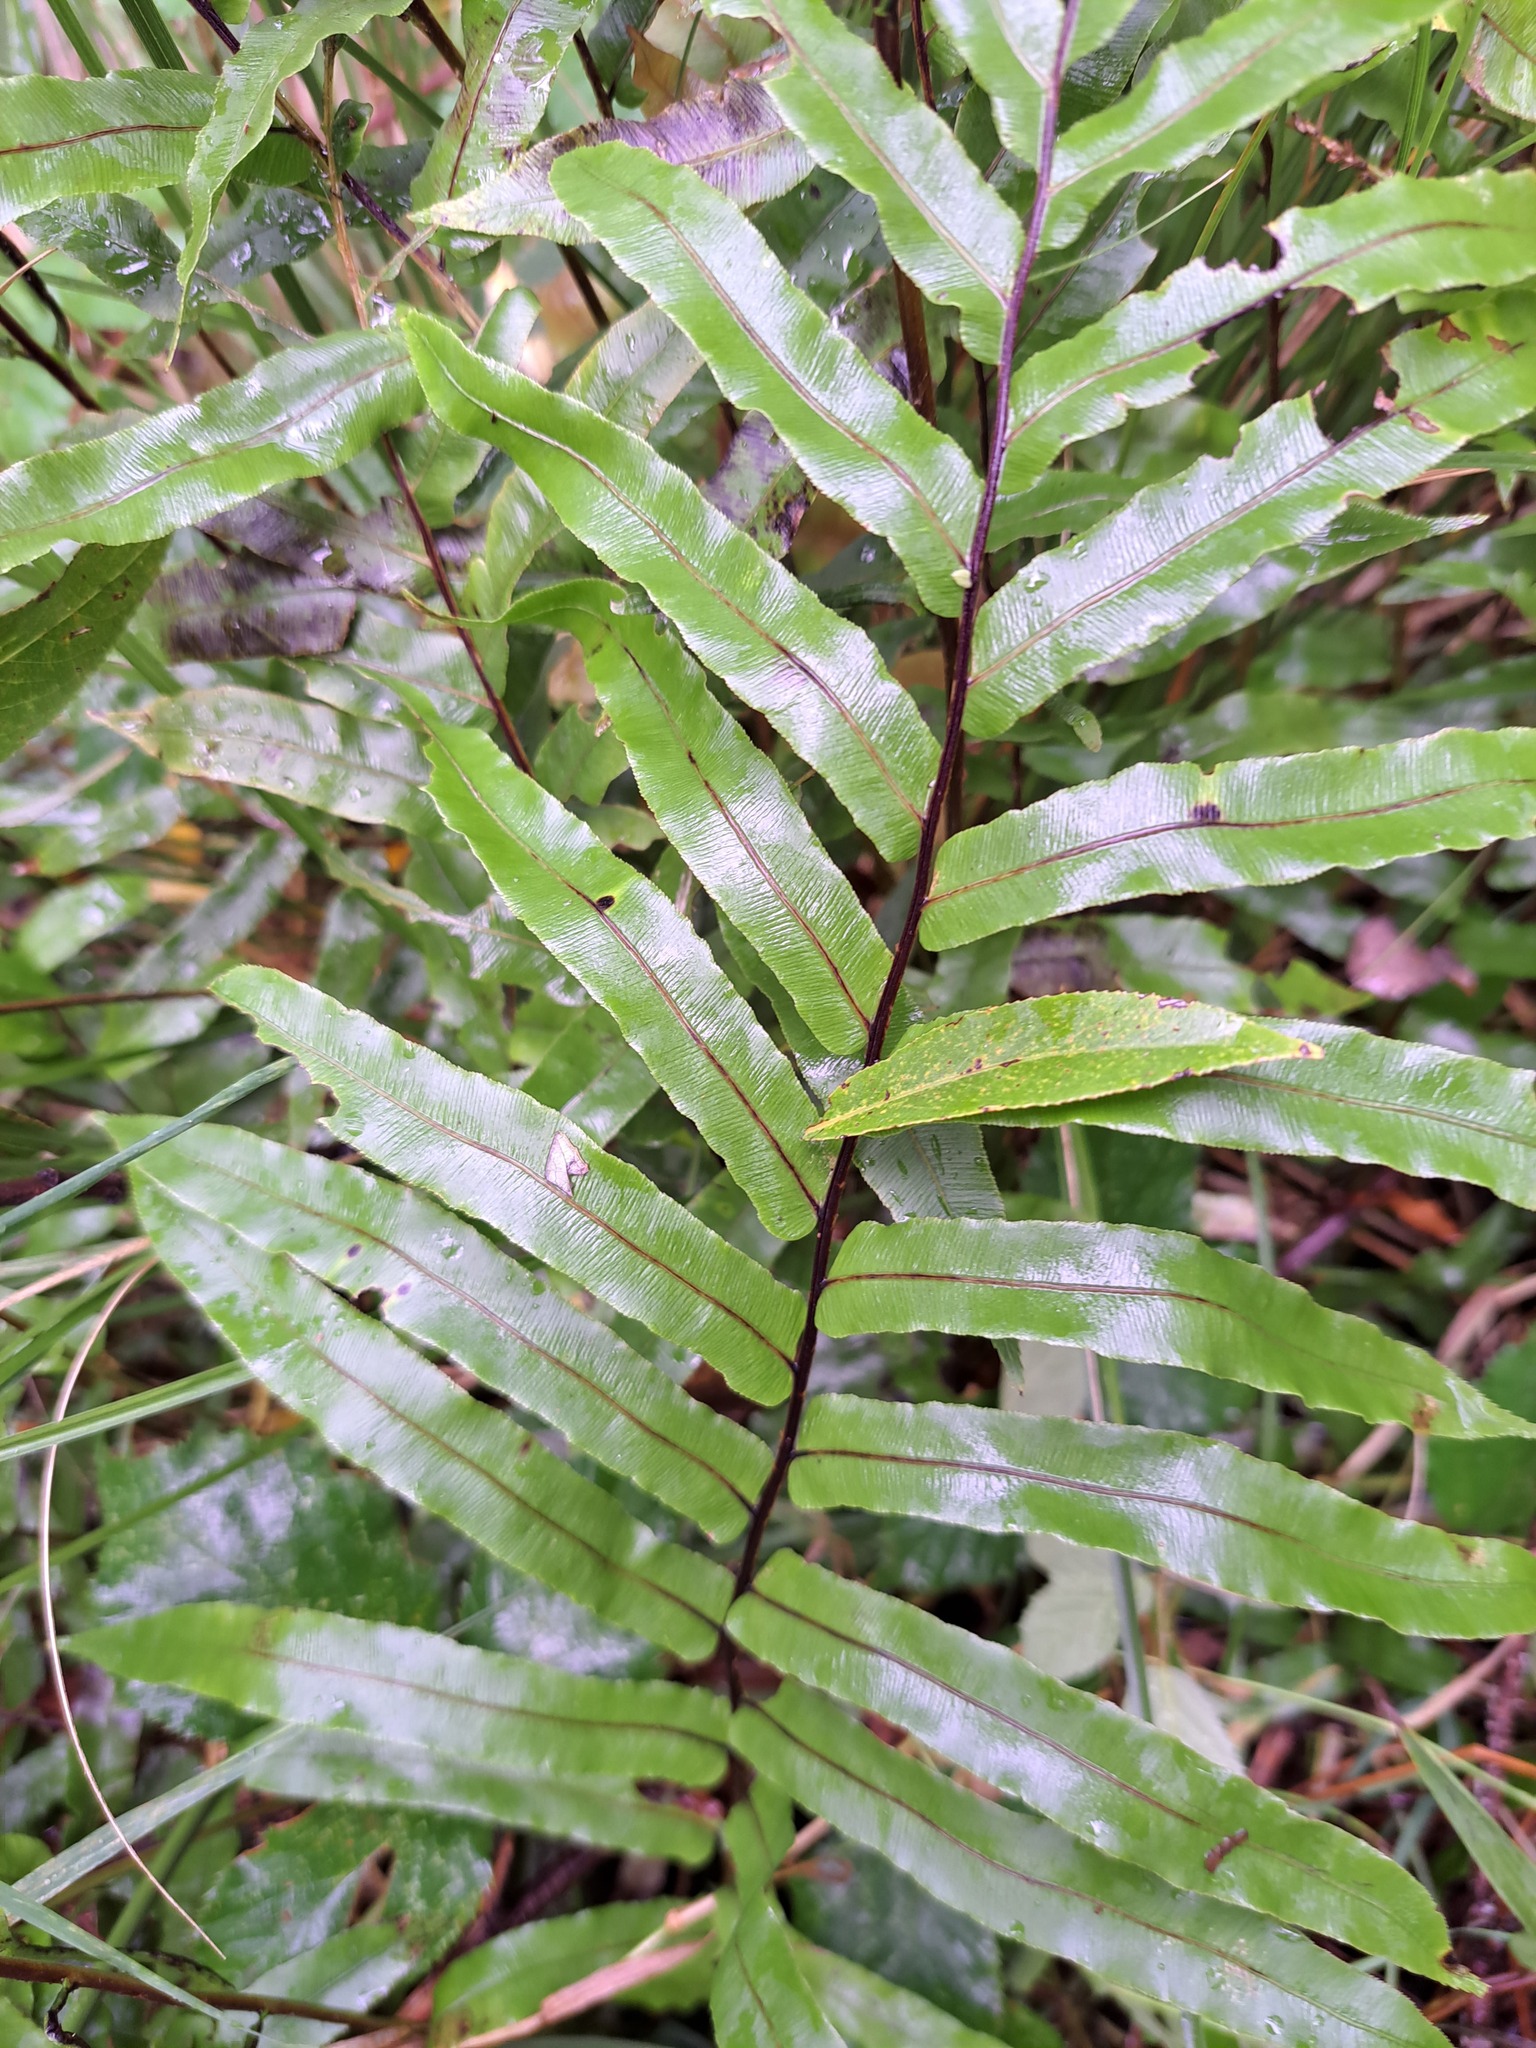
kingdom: Plantae
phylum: Tracheophyta
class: Polypodiopsida
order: Polypodiales
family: Blechnaceae
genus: Parablechnum
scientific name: Parablechnum minus
